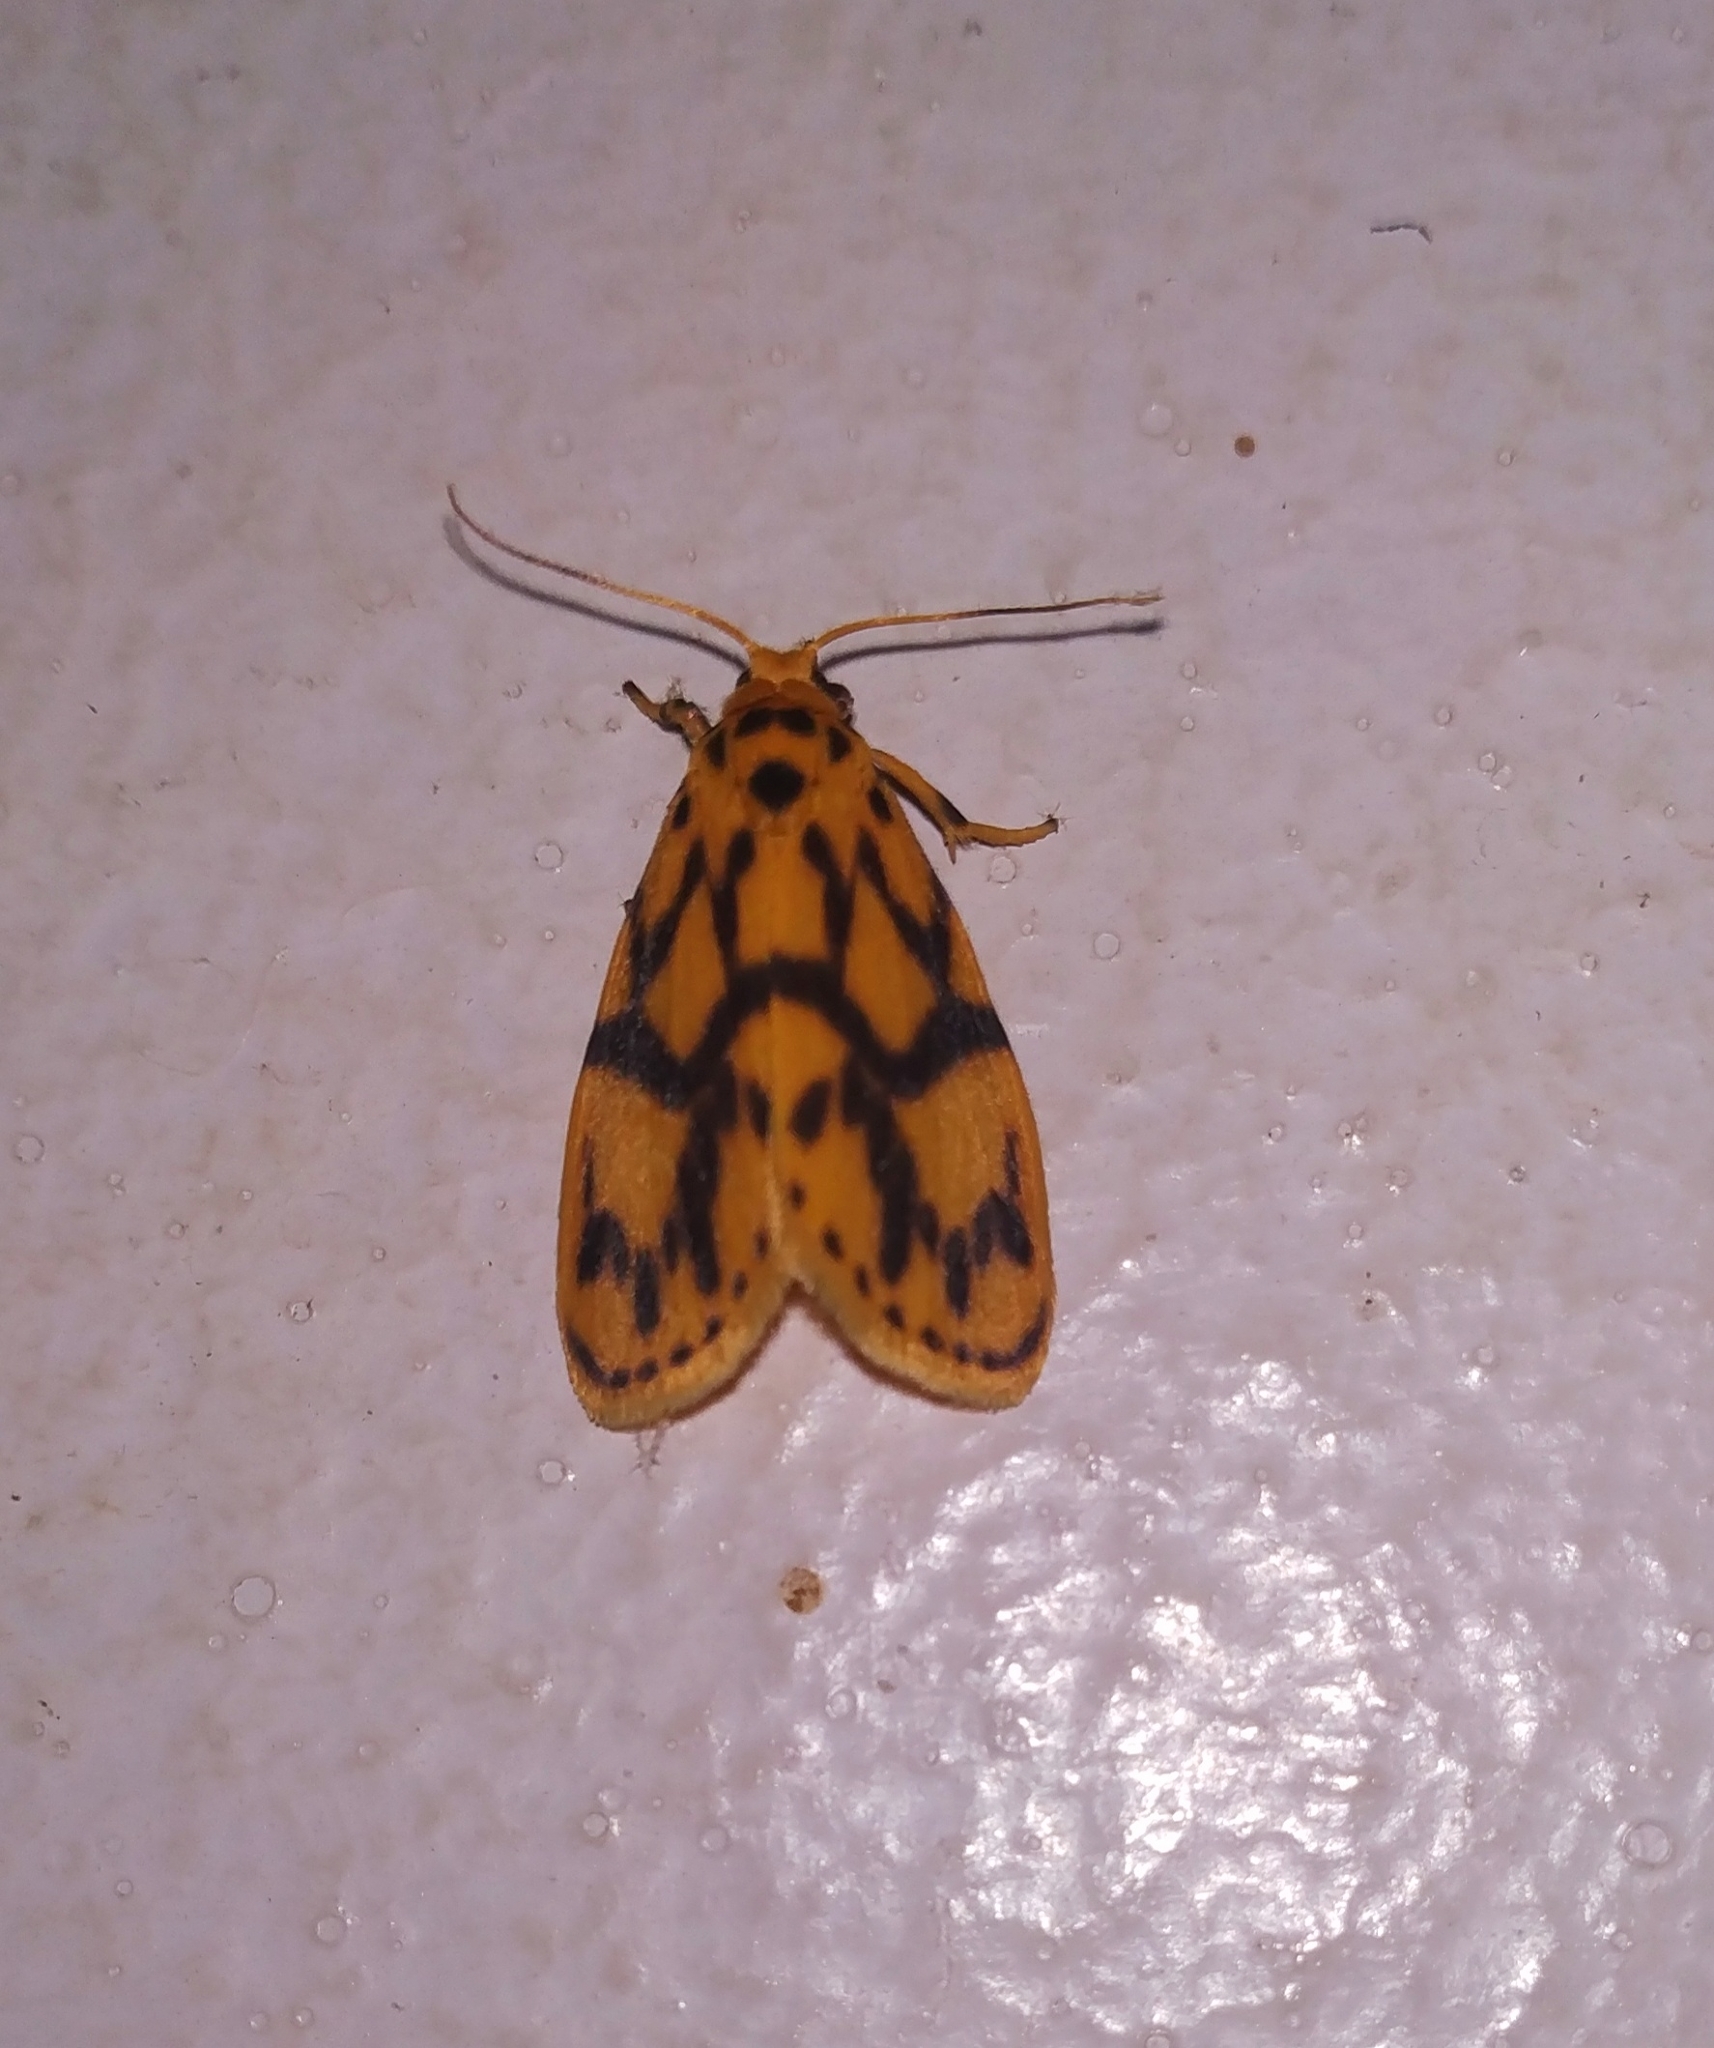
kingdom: Animalia
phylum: Arthropoda
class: Insecta
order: Lepidoptera
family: Erebidae
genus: Miltochrista
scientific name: Miltochrista terminospota
